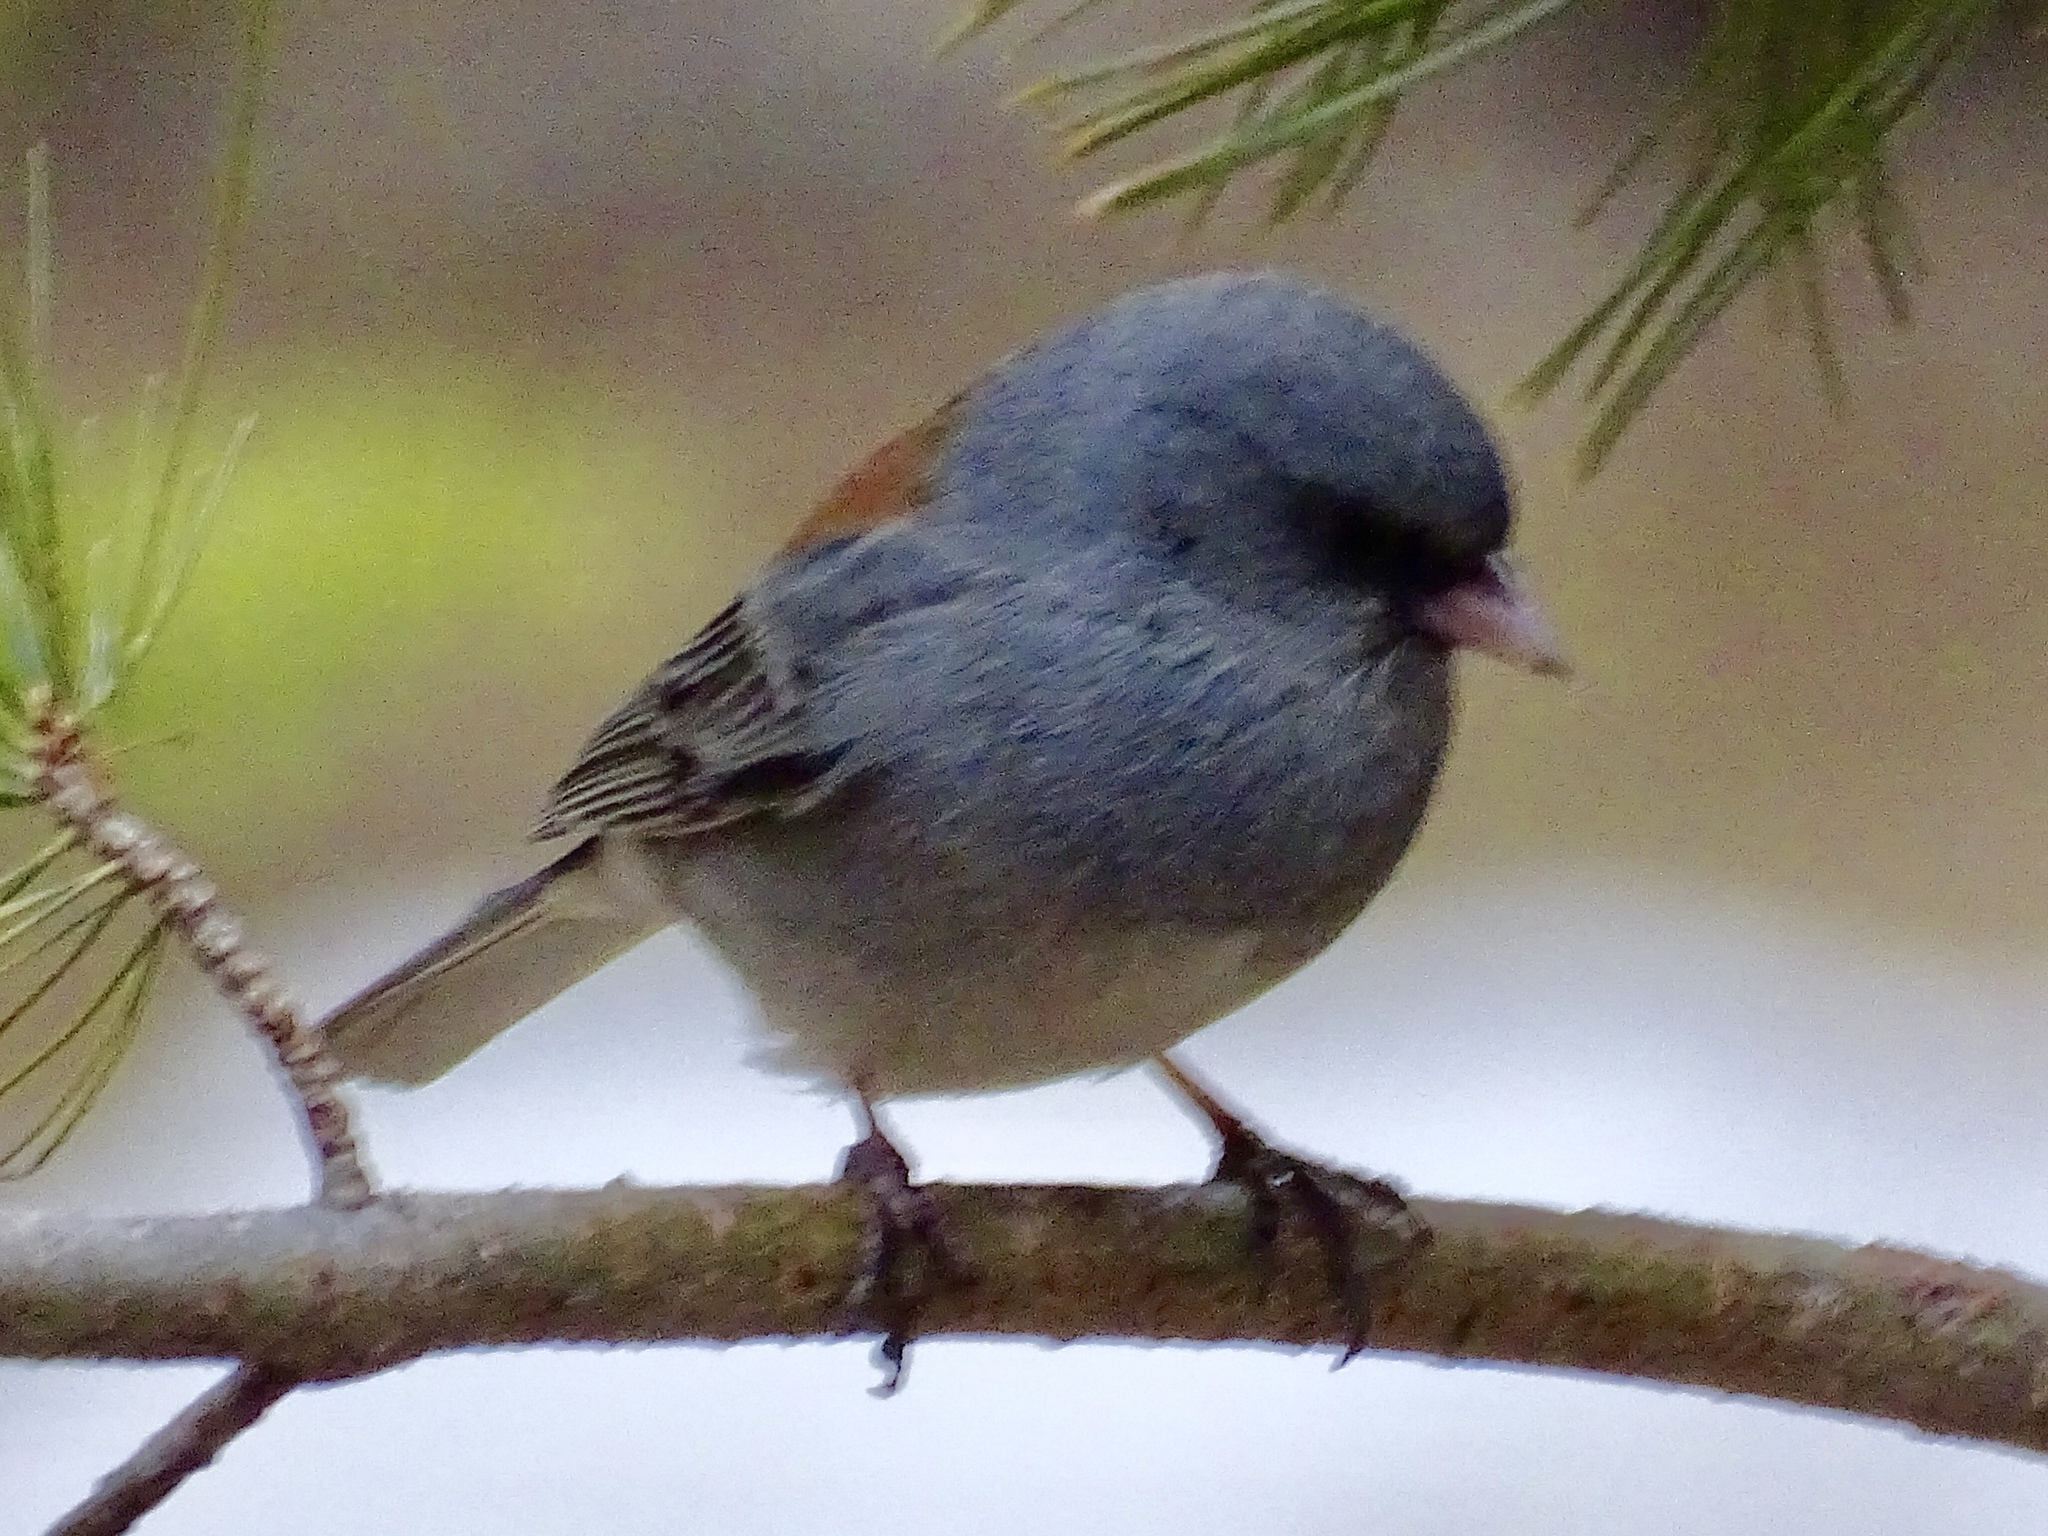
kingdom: Animalia
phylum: Chordata
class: Aves
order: Passeriformes
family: Passerellidae
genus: Junco
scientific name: Junco hyemalis
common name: Dark-eyed junco
